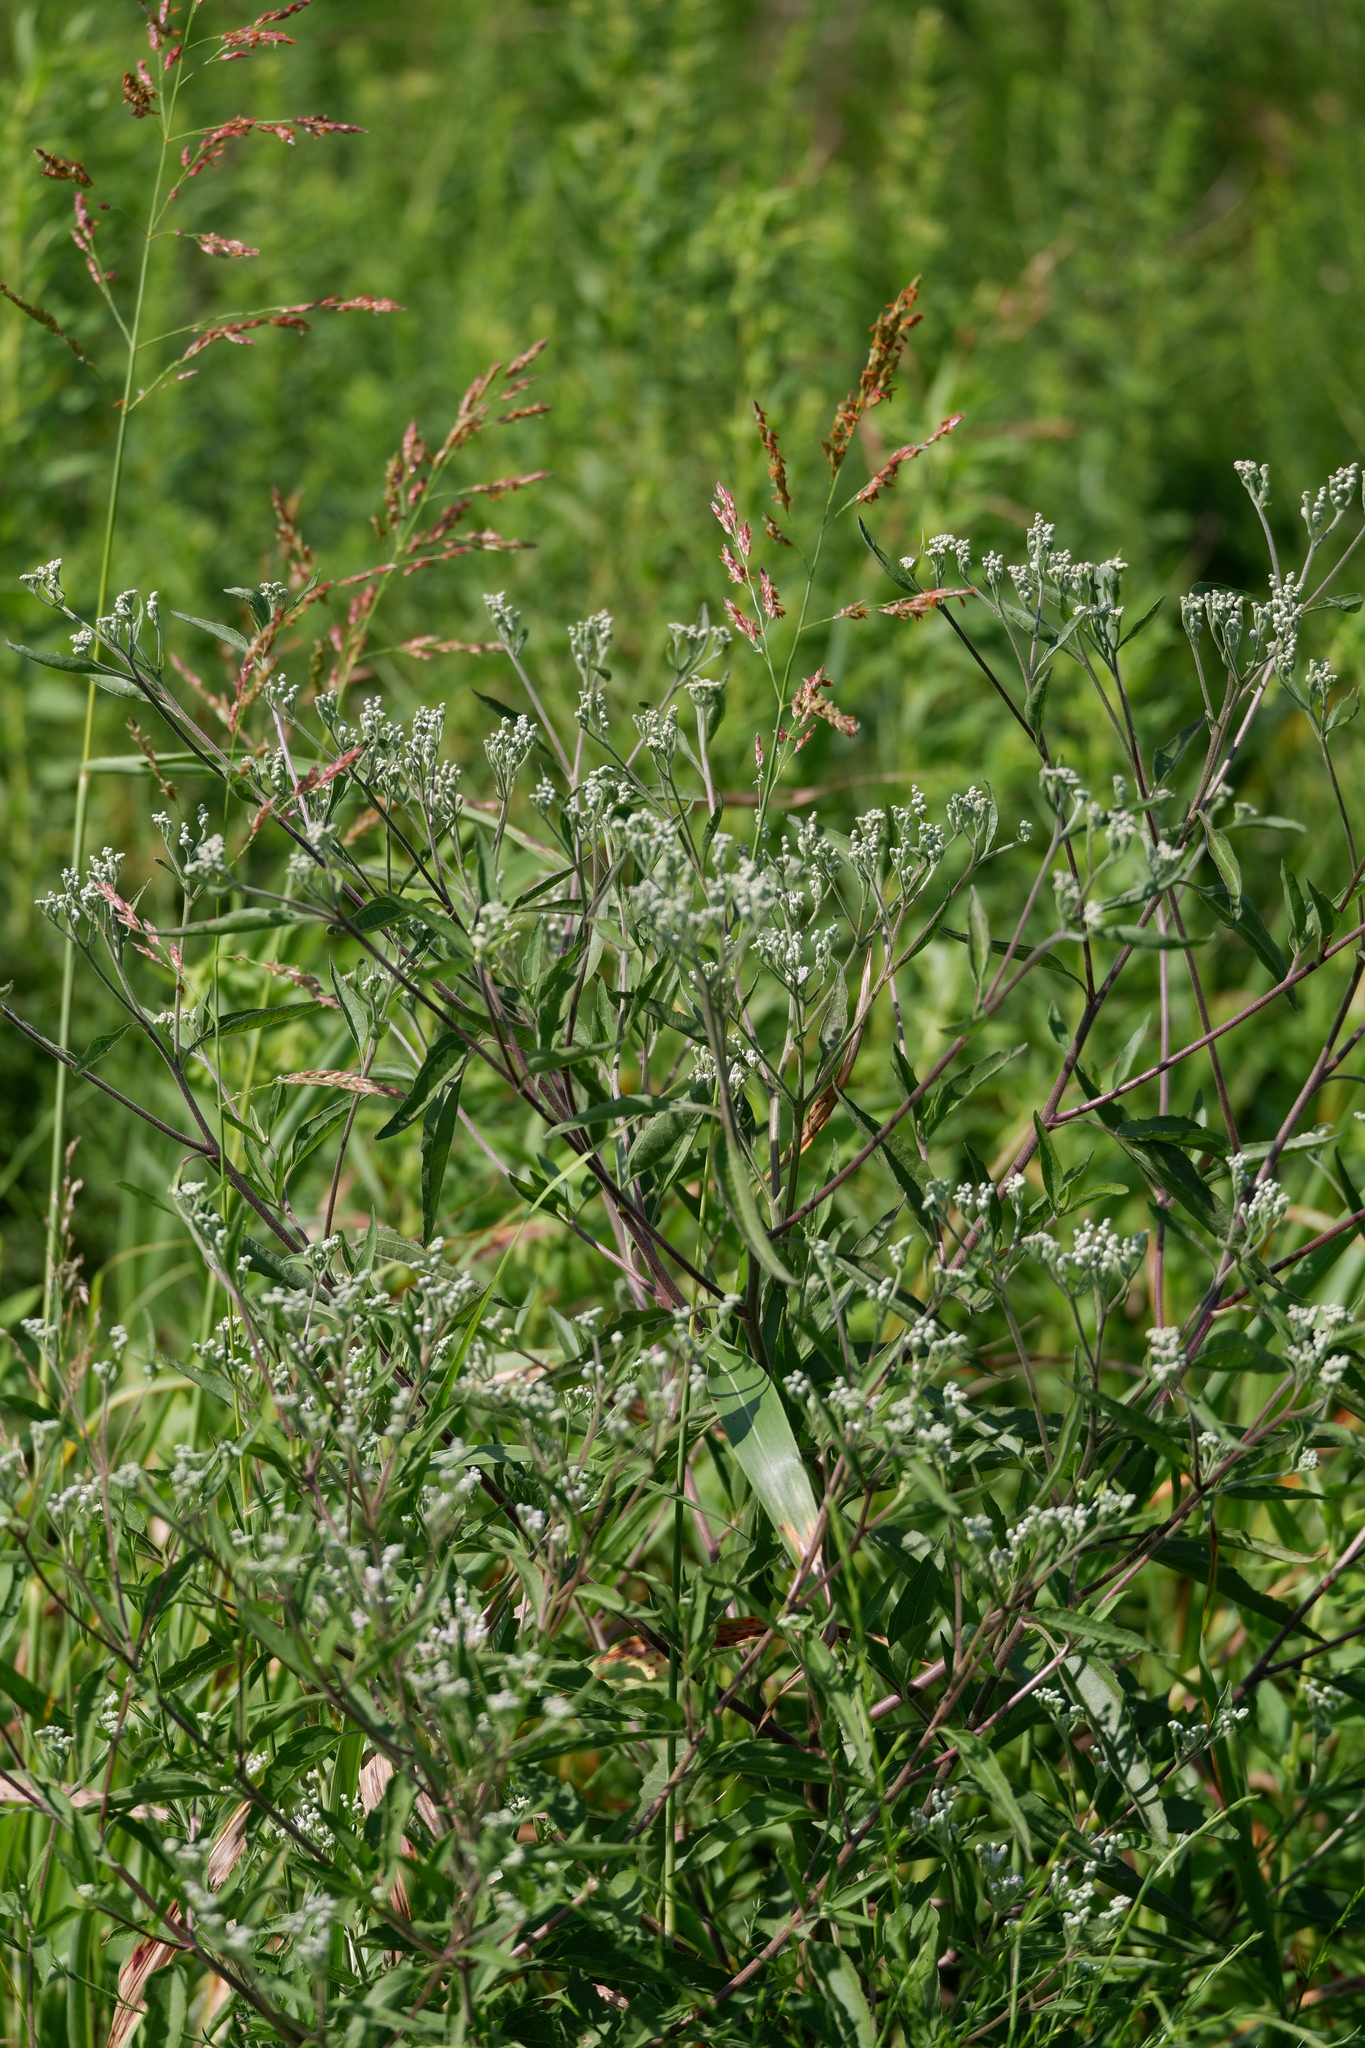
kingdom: Plantae
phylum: Tracheophyta
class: Magnoliopsida
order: Asterales
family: Asteraceae
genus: Eupatorium
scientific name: Eupatorium serotinum
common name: Late boneset
